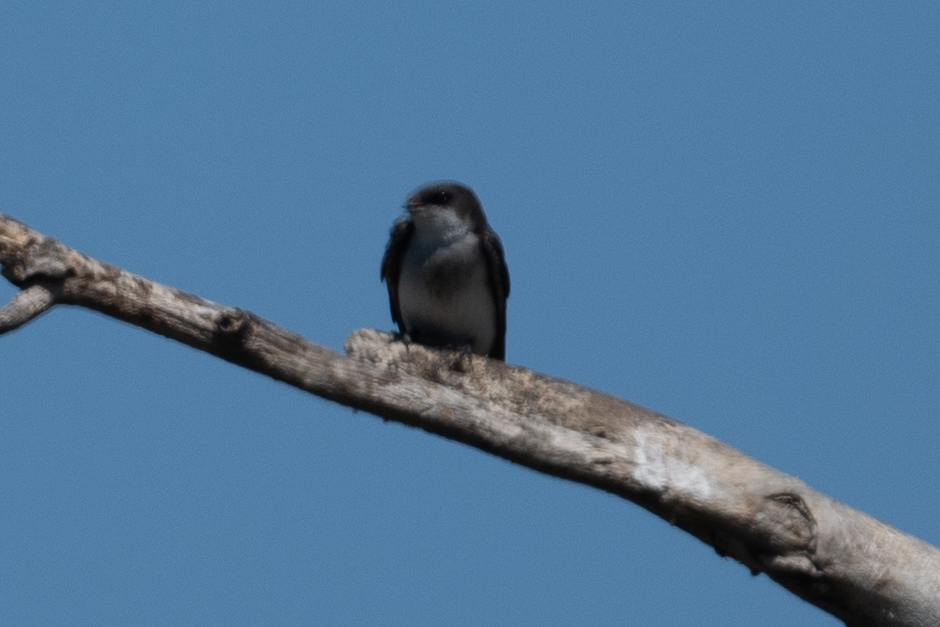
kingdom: Animalia
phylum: Chordata
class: Aves
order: Passeriformes
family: Hirundinidae
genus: Tachycineta
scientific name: Tachycineta bicolor
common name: Tree swallow
